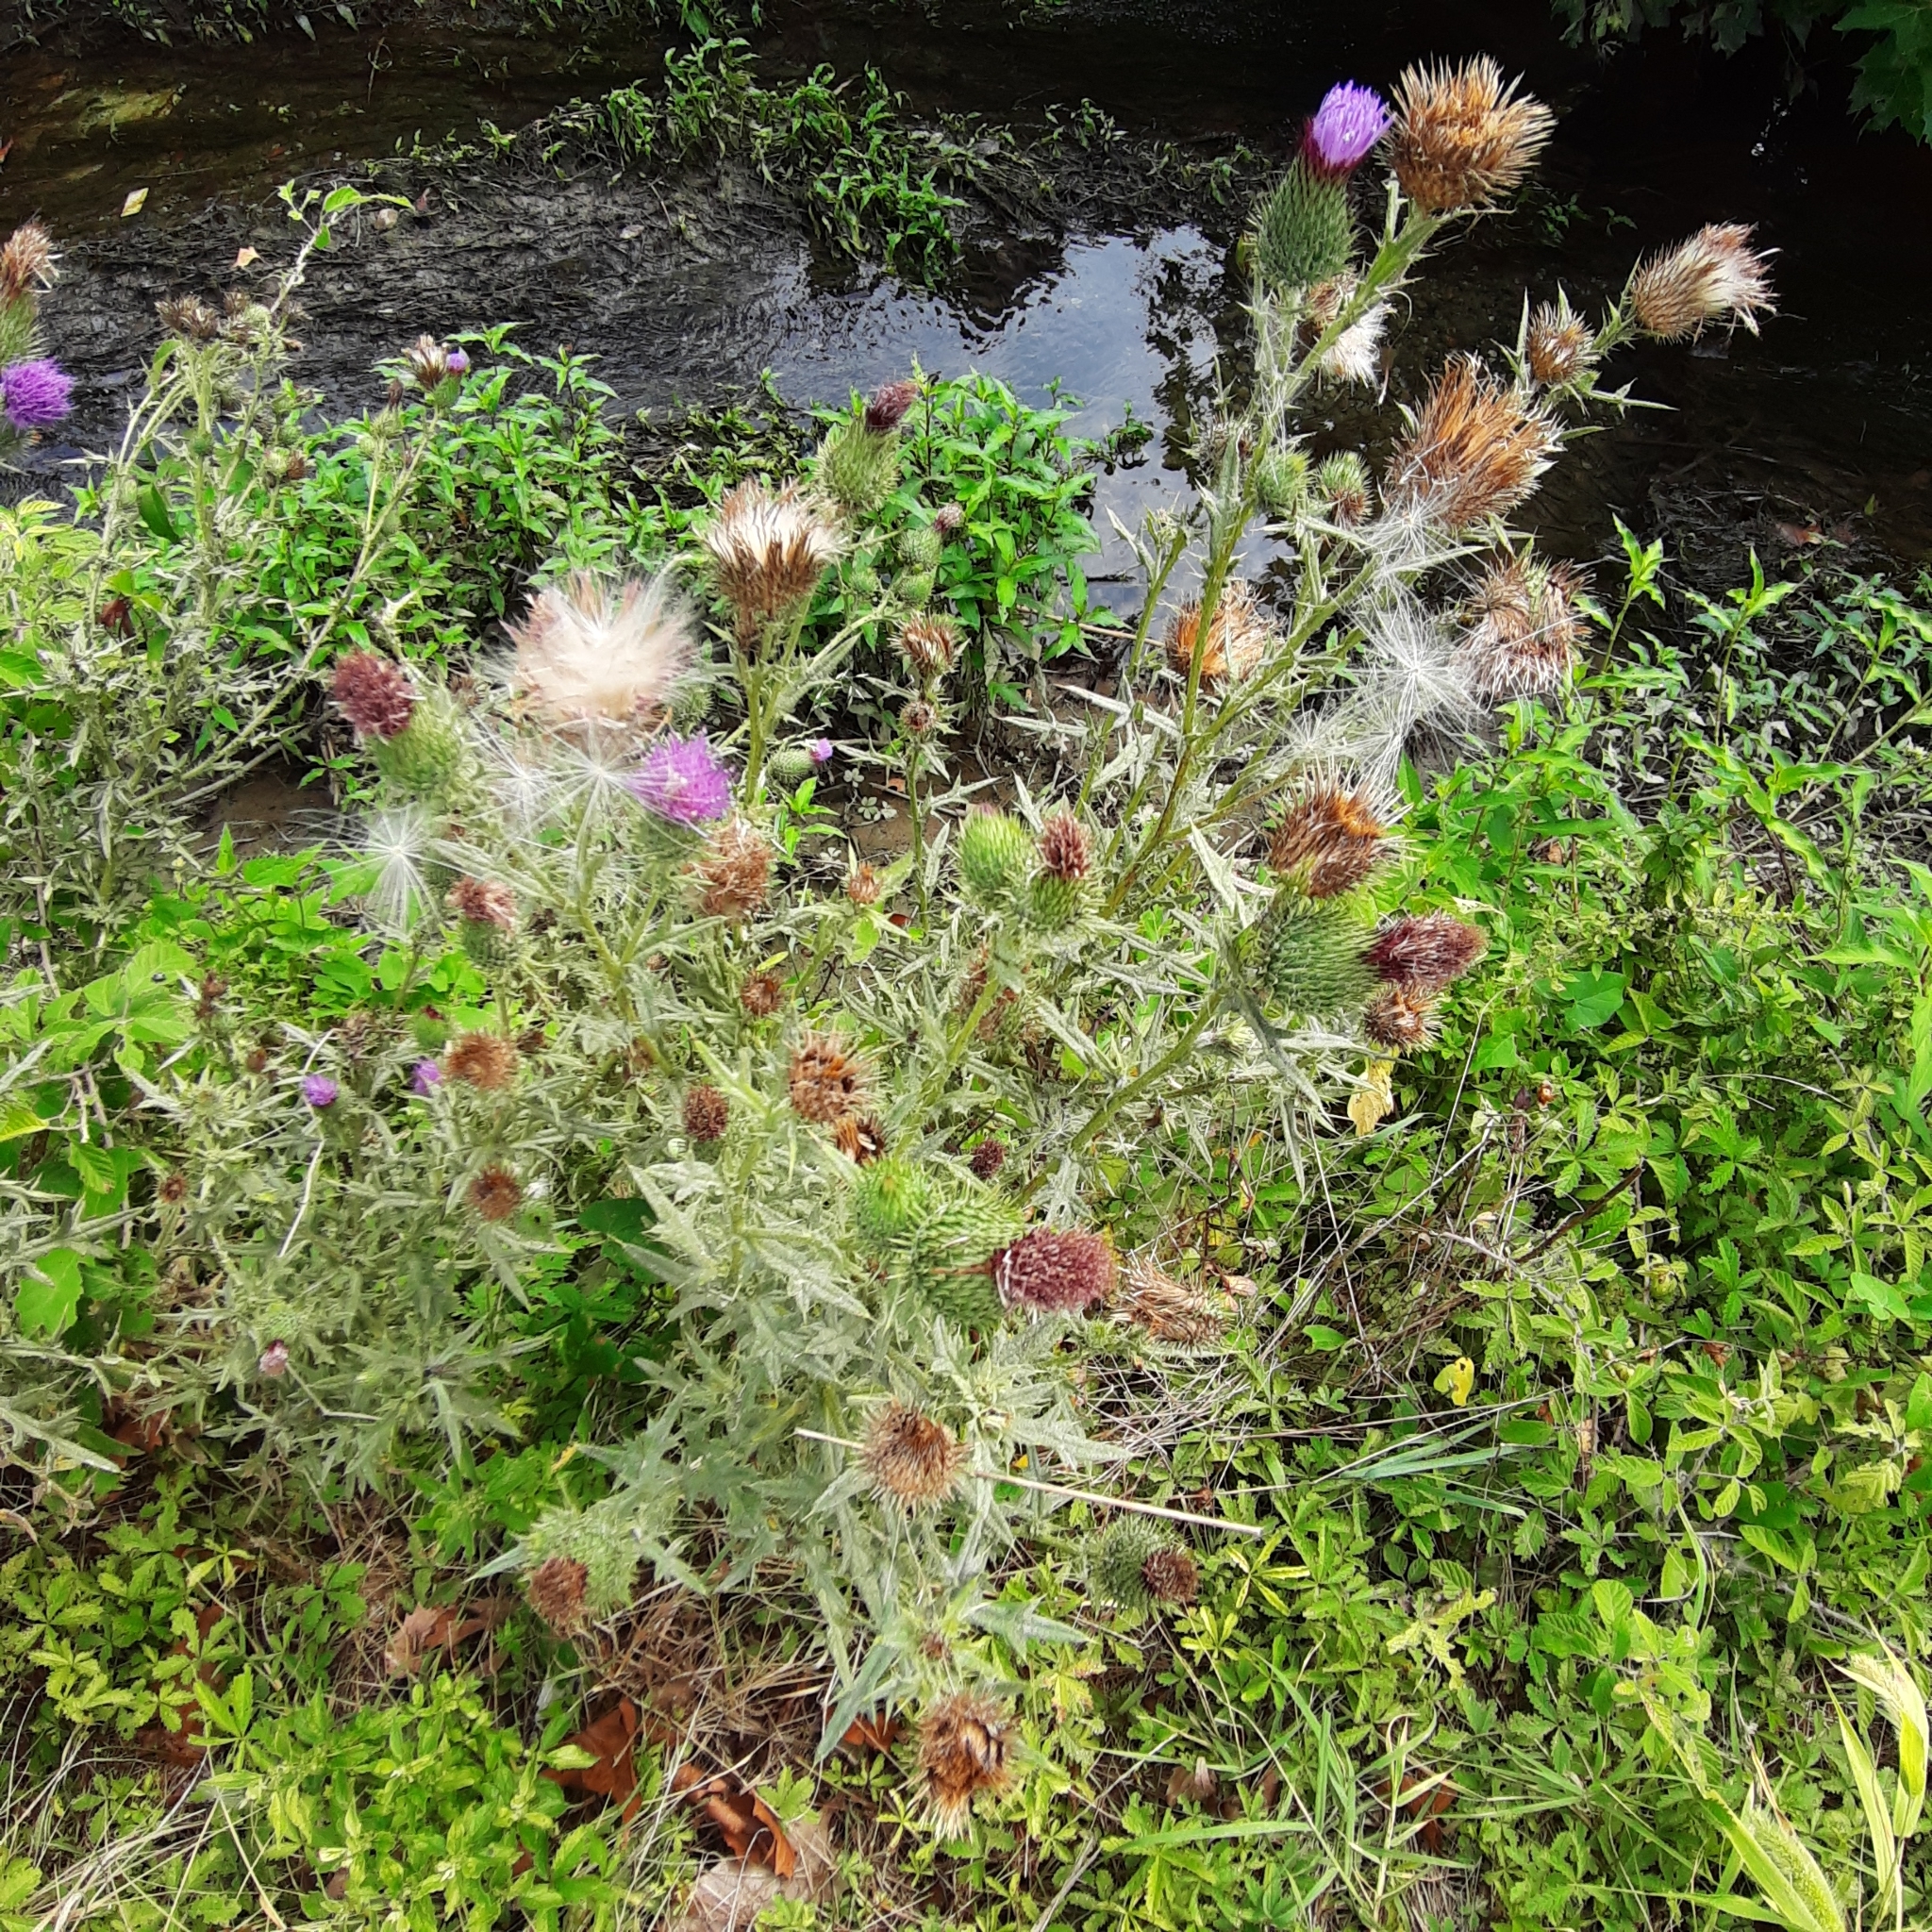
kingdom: Plantae
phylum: Tracheophyta
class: Magnoliopsida
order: Asterales
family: Asteraceae
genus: Cirsium
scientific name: Cirsium vulgare
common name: Bull thistle
